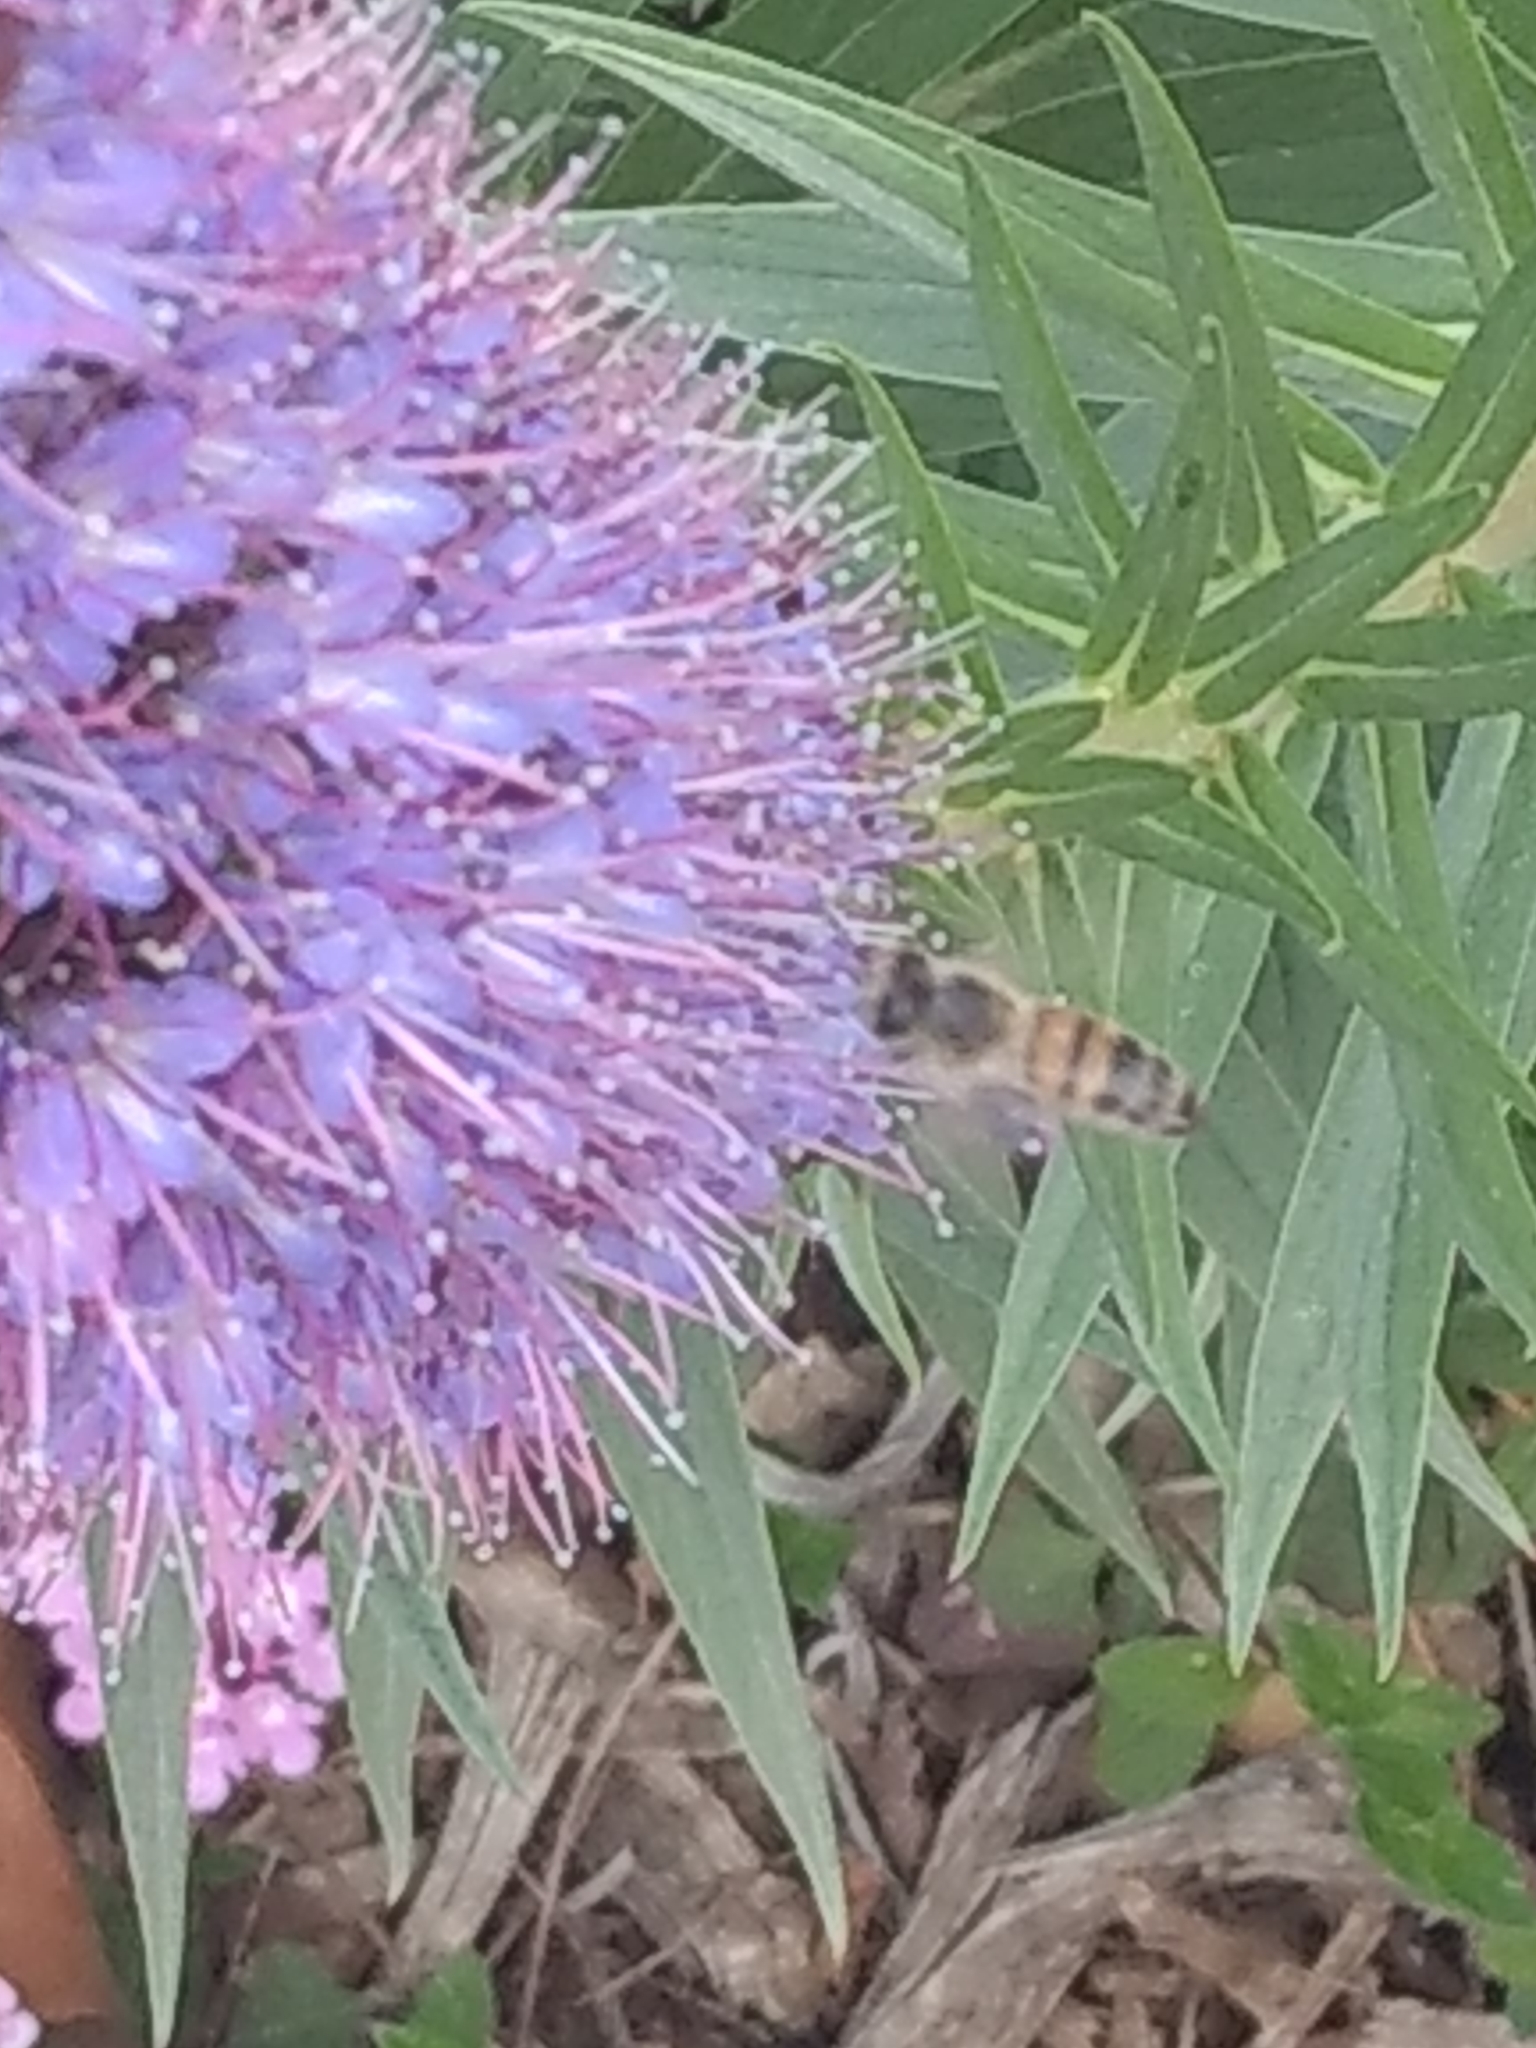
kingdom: Animalia
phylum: Arthropoda
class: Insecta
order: Hymenoptera
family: Apidae
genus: Apis
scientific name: Apis mellifera
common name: Honey bee
